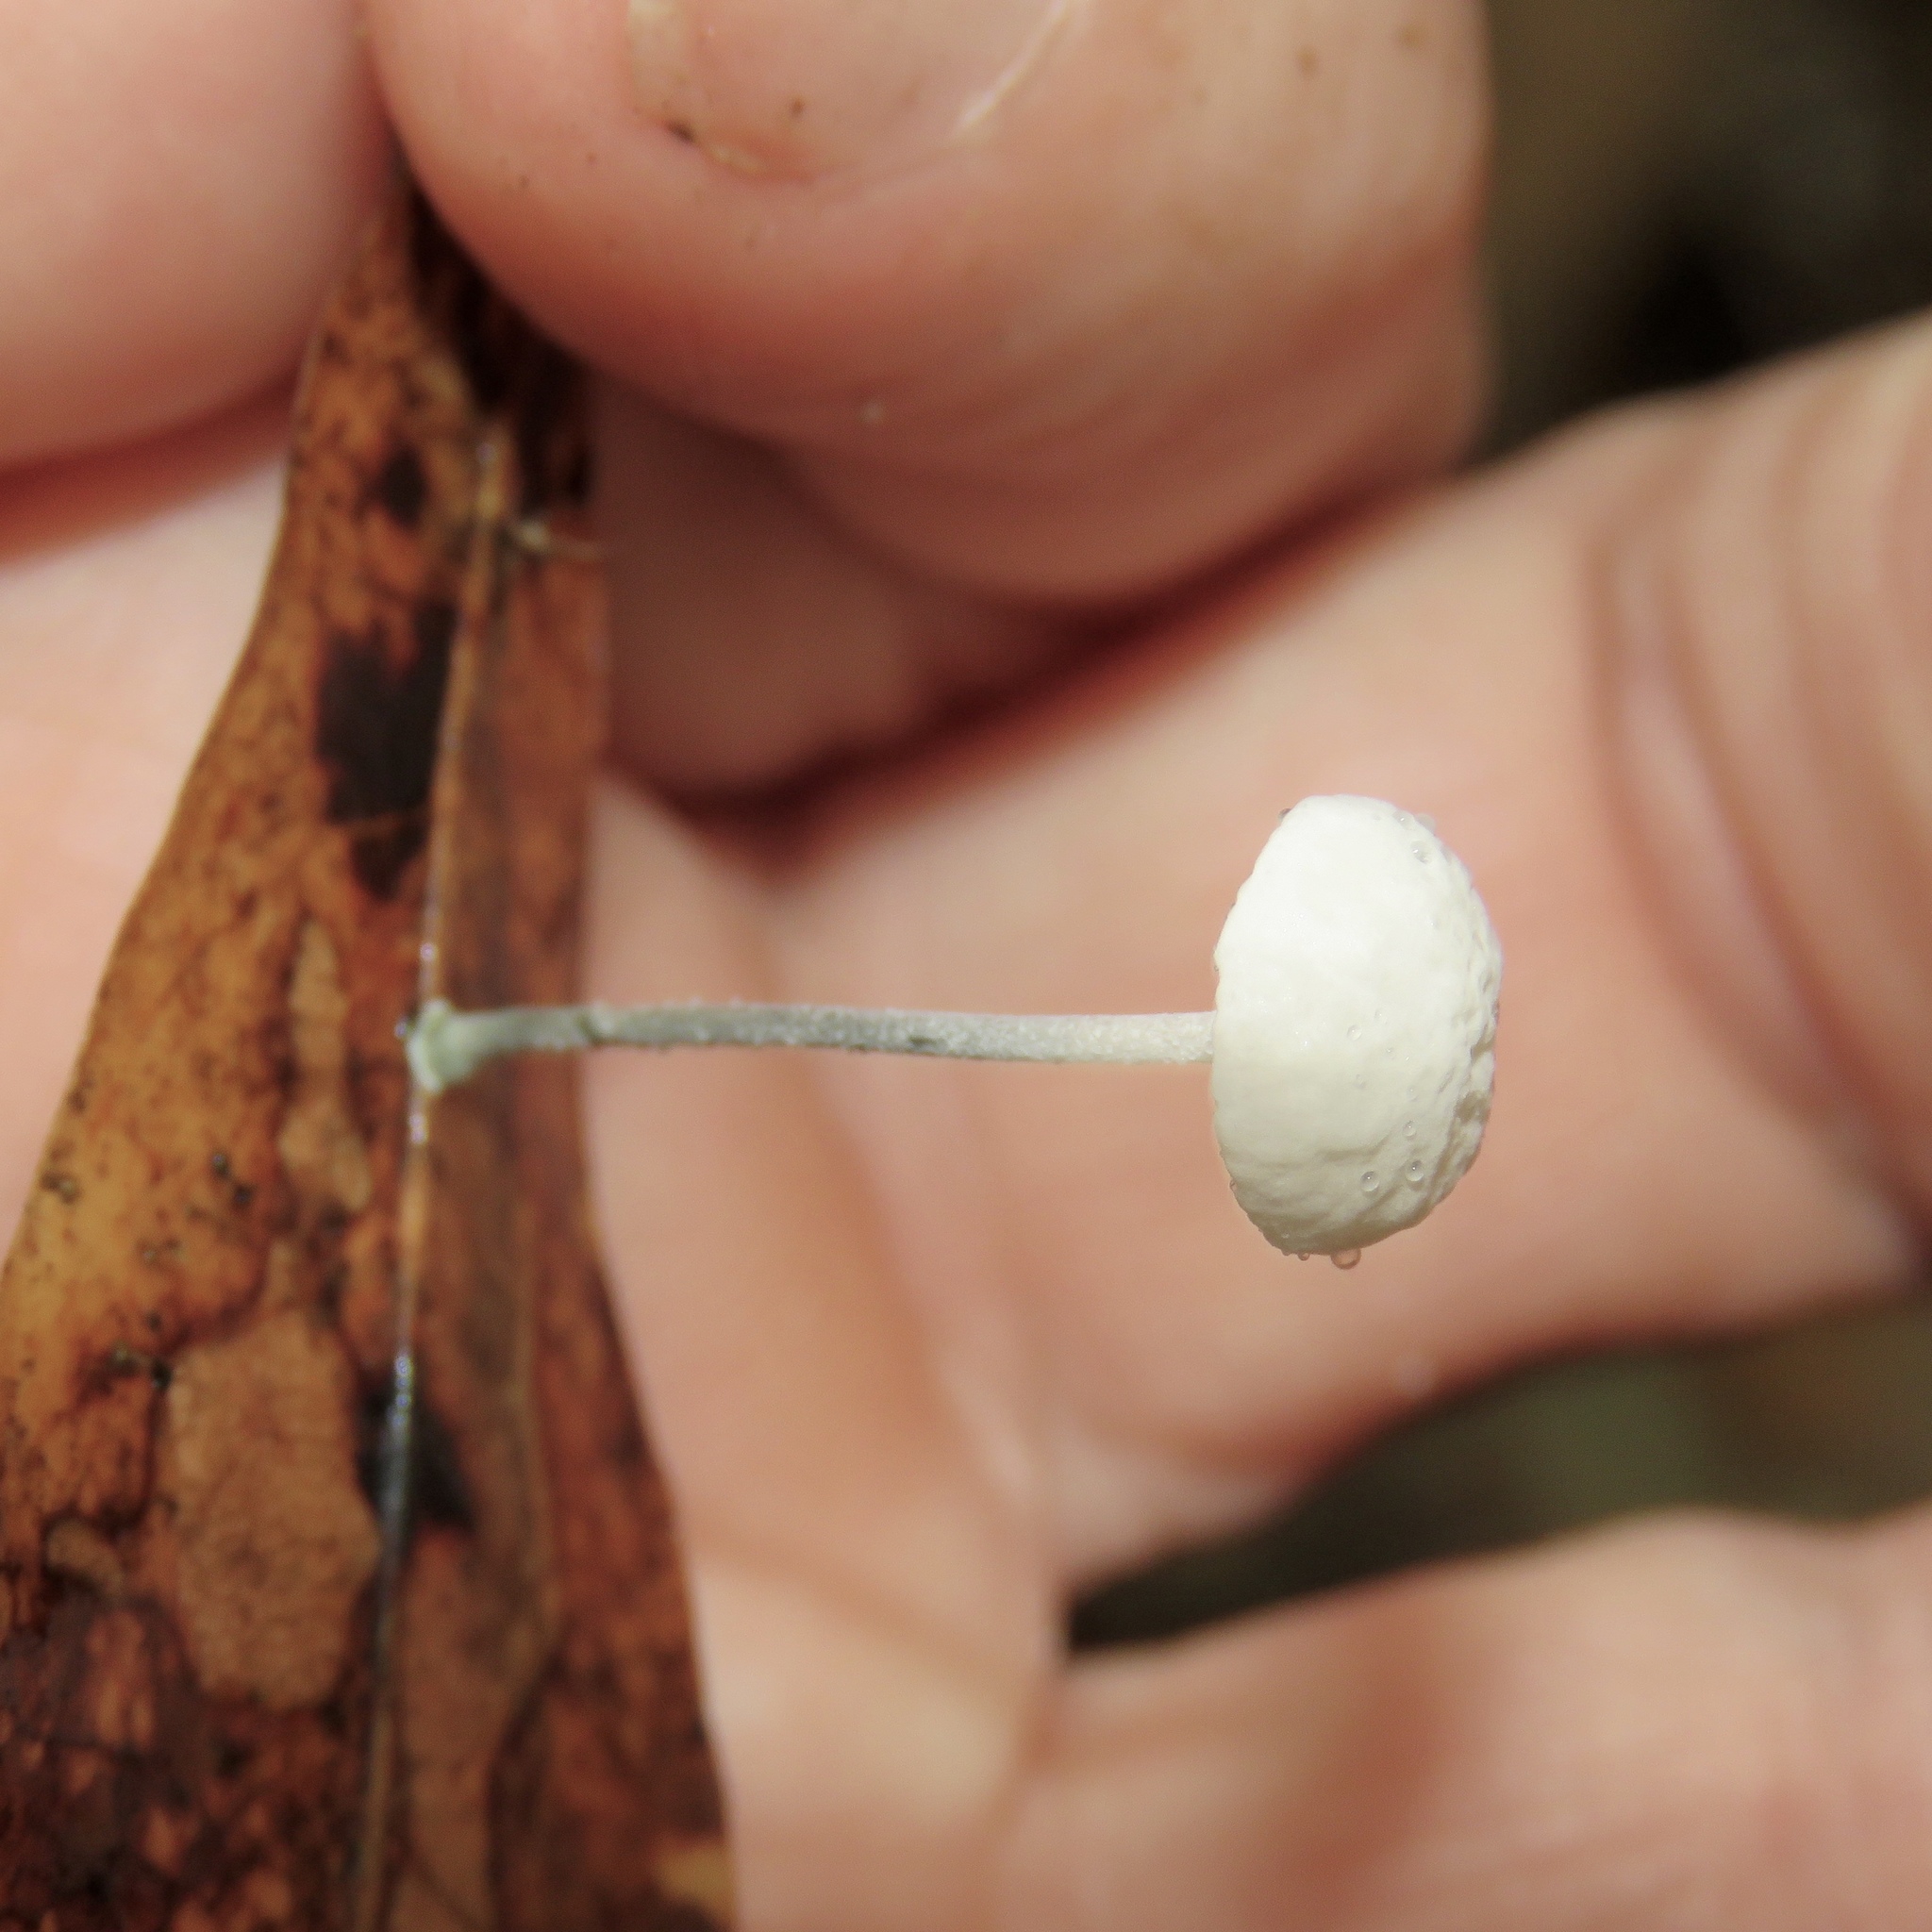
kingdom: Fungi
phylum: Basidiomycota
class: Agaricomycetes
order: Agaricales
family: Marasmiaceae
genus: Tetrapyrgos
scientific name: Tetrapyrgos nigripes
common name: Black-stalked marasmius
